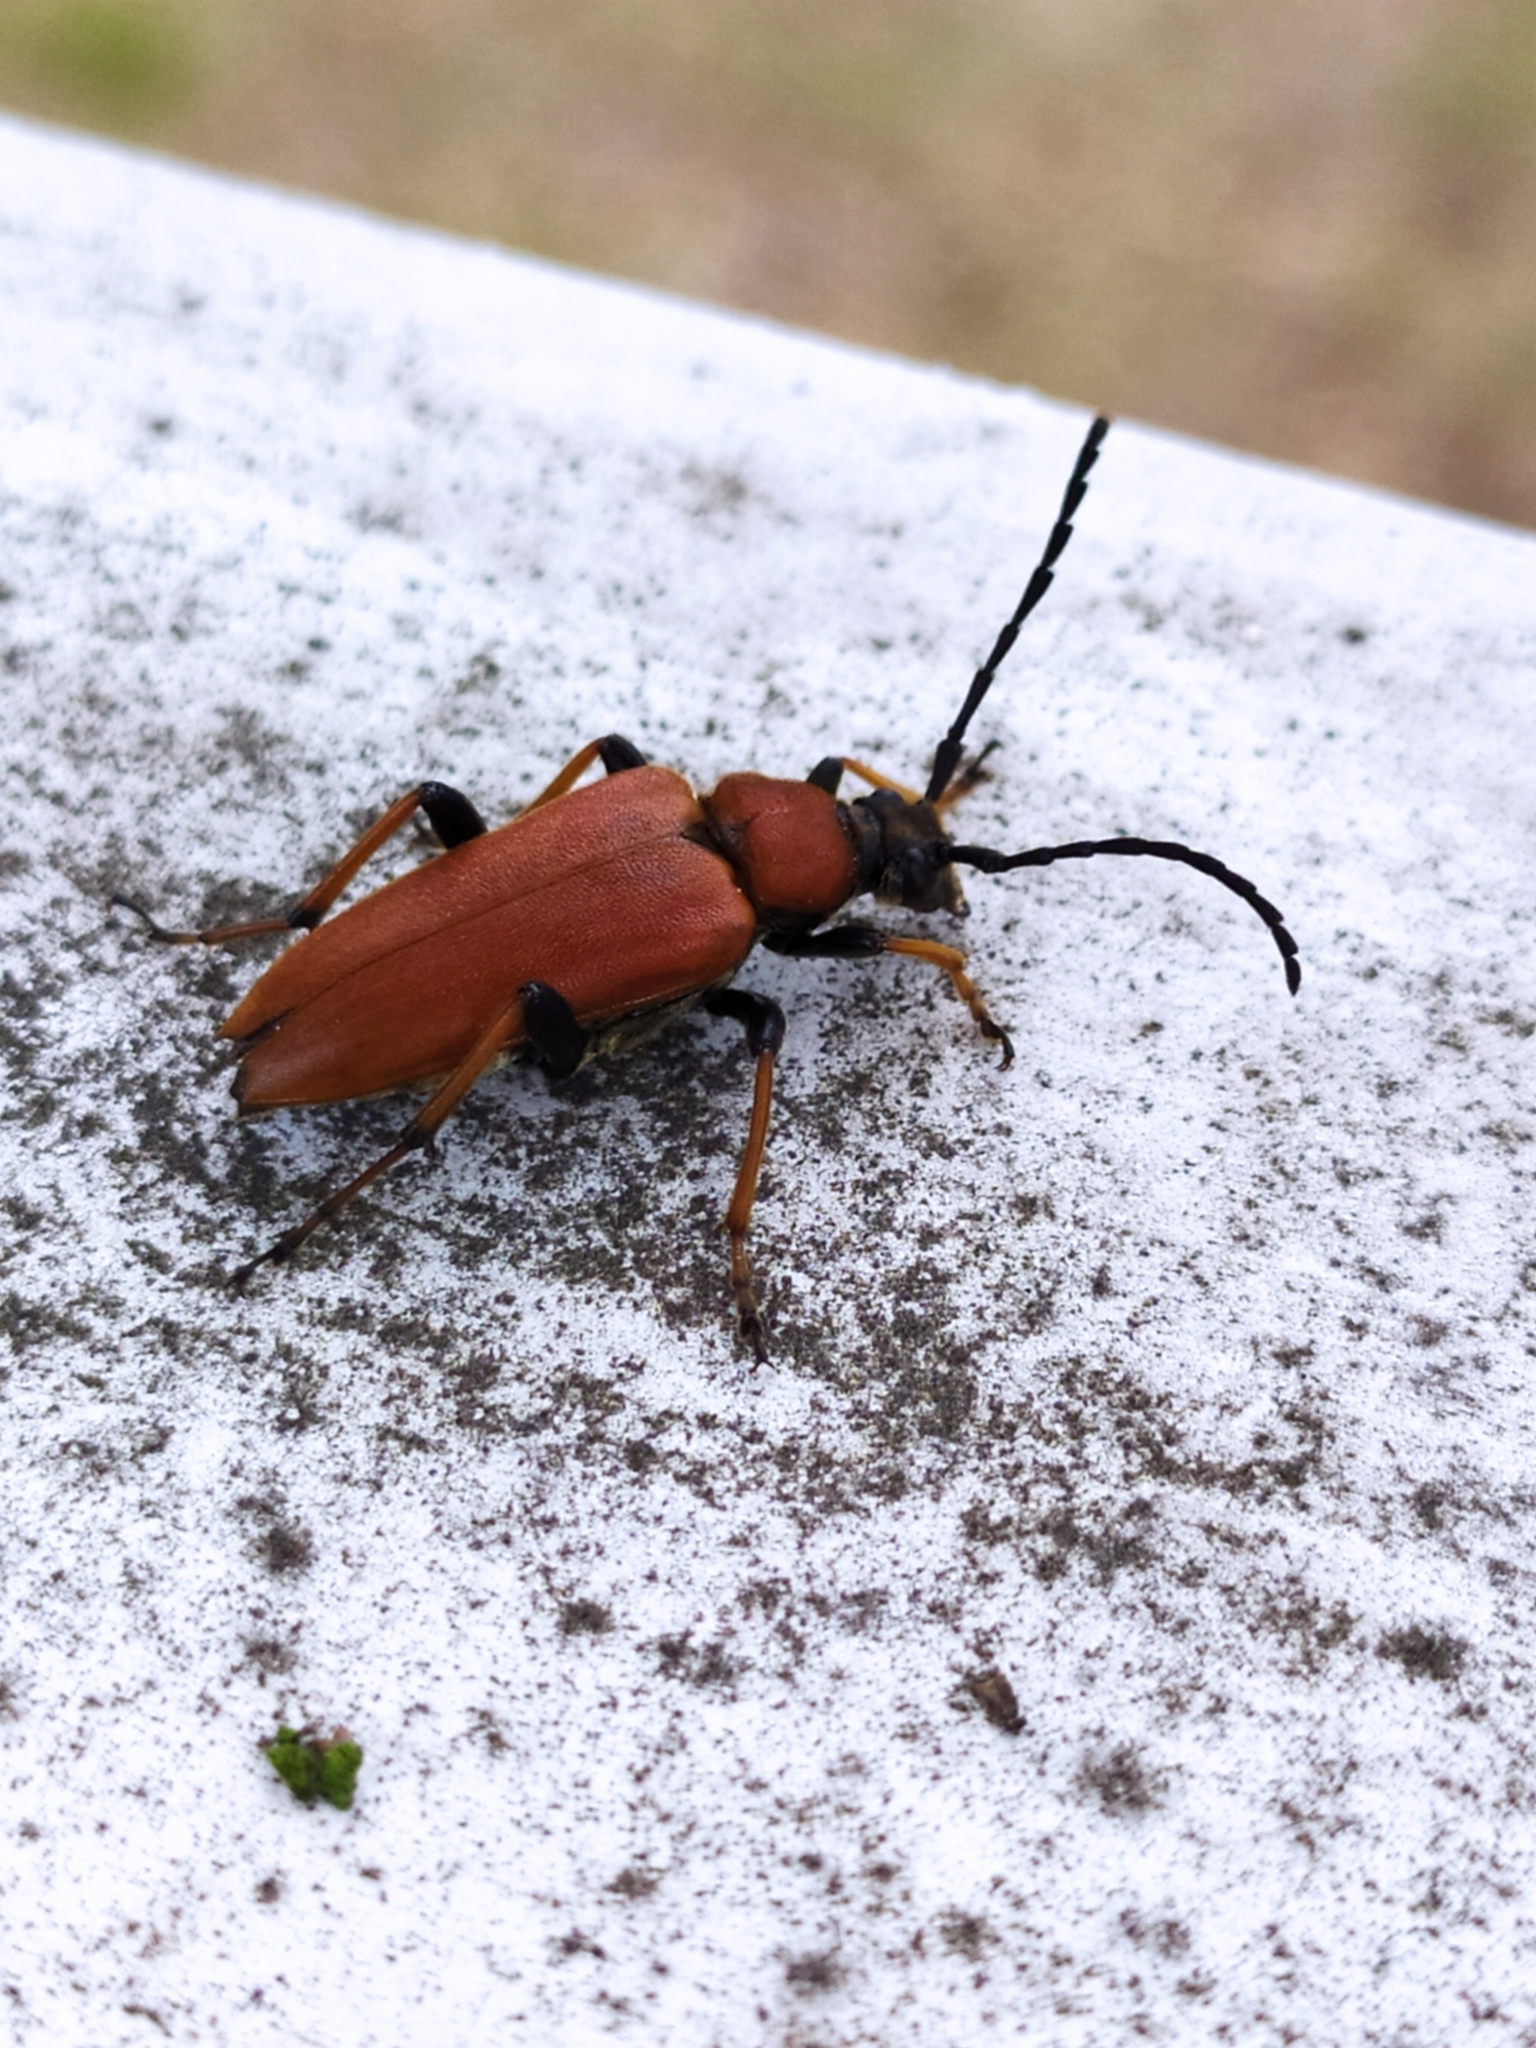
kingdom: Animalia
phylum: Arthropoda
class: Insecta
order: Coleoptera
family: Cerambycidae
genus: Stictoleptura
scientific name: Stictoleptura rubra
